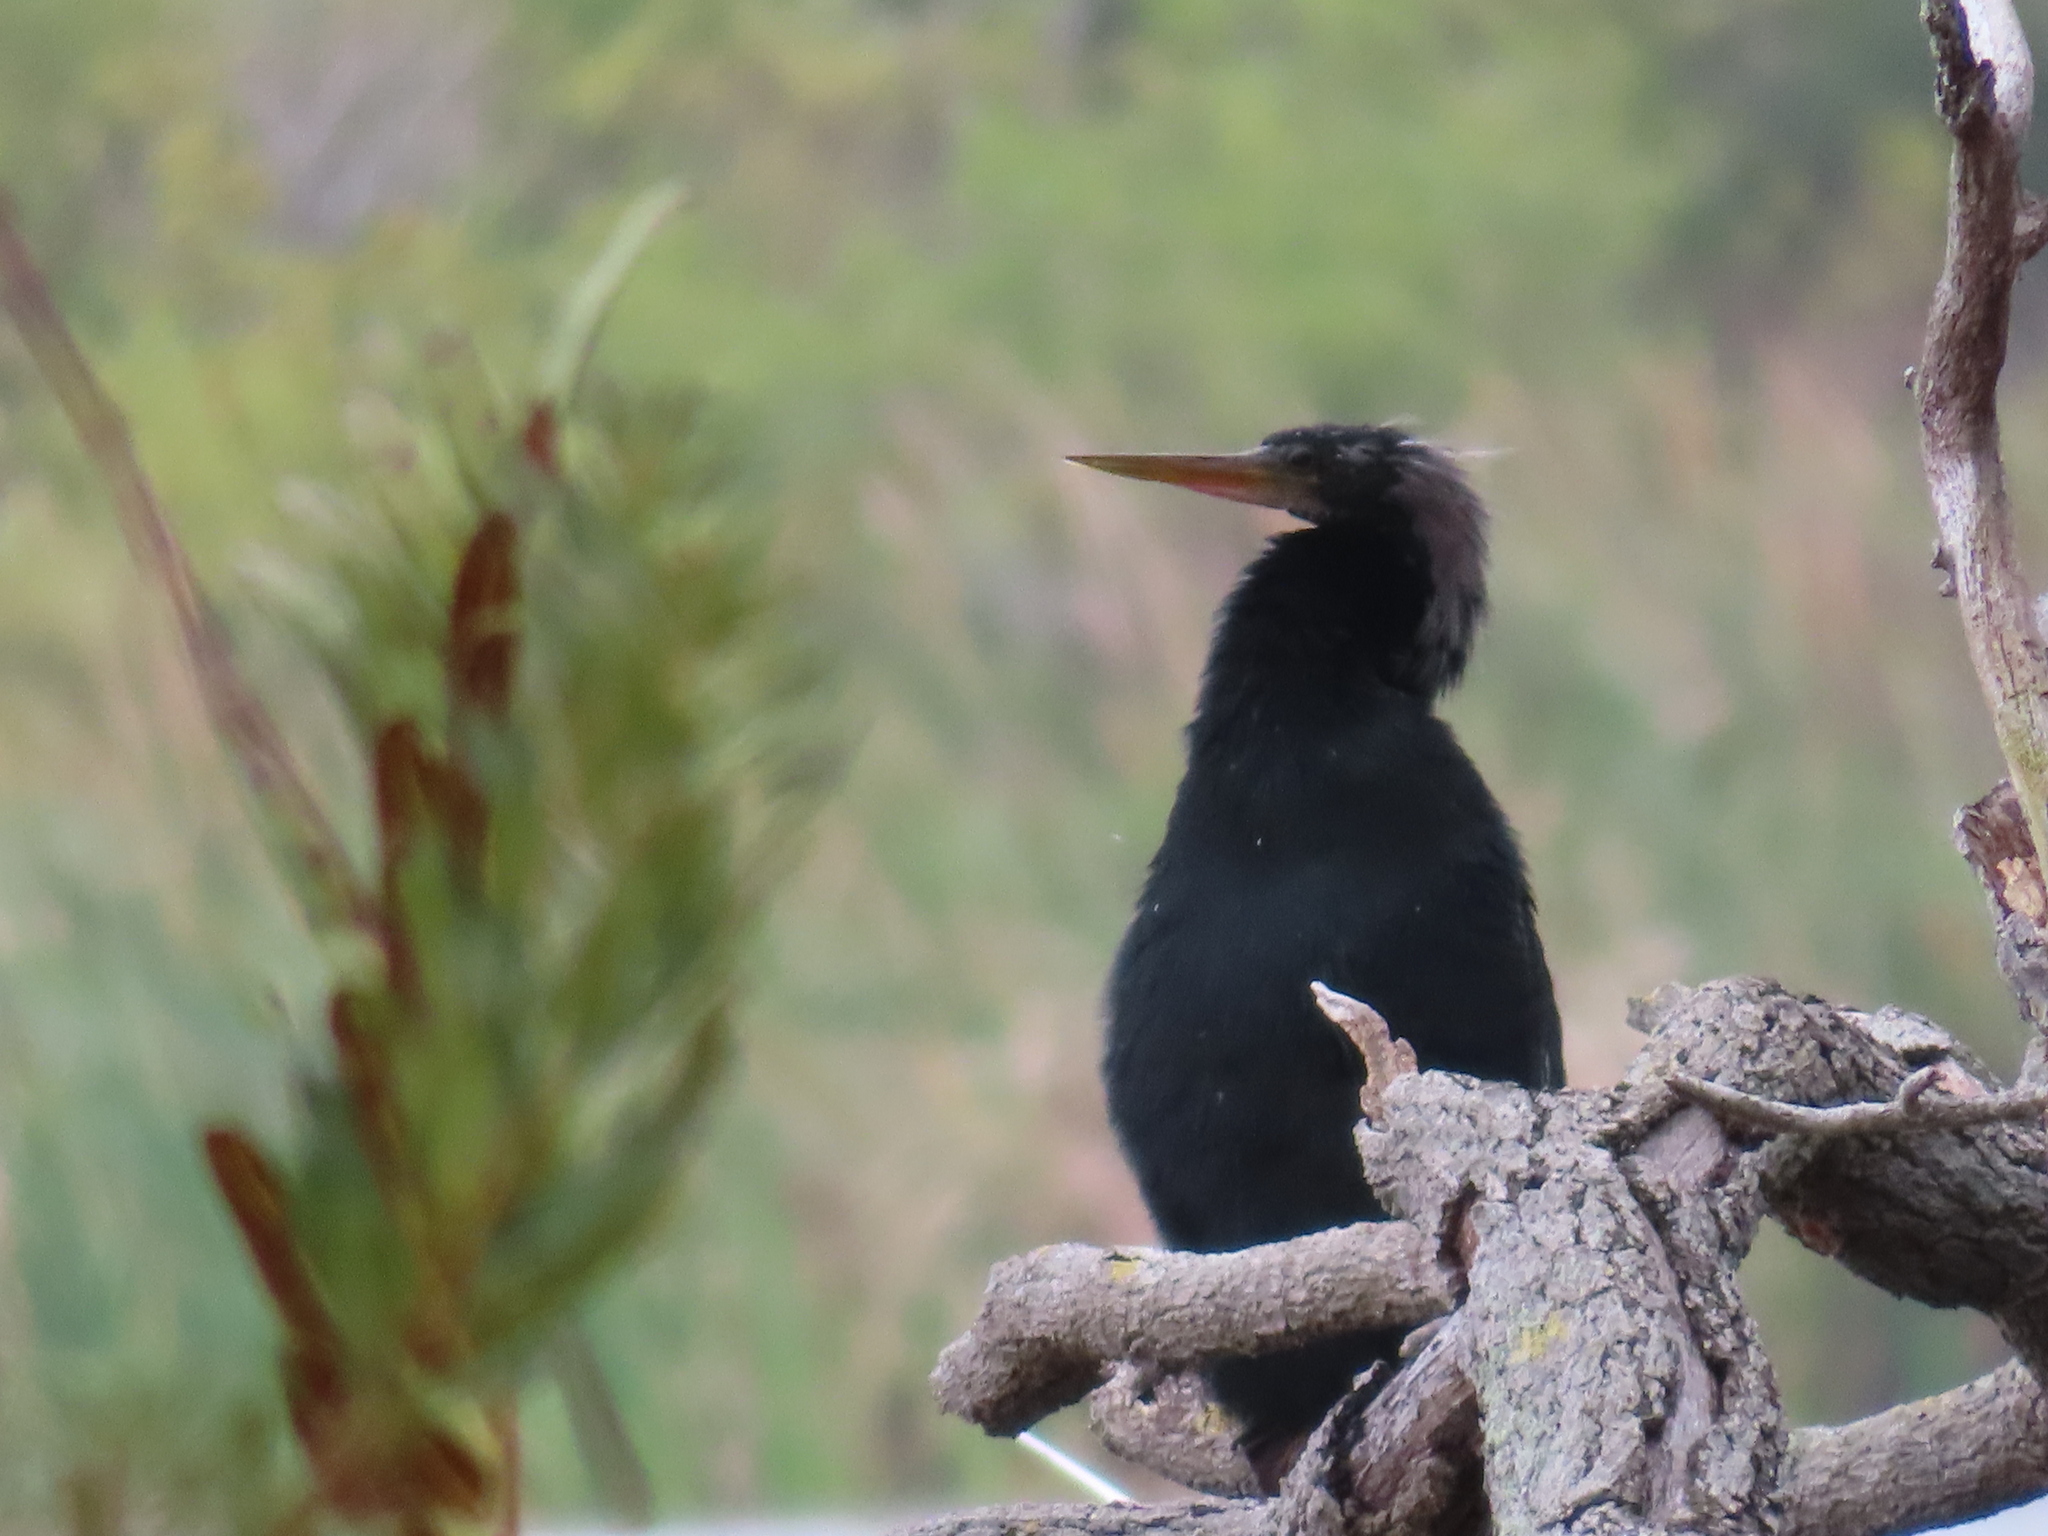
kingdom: Animalia
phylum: Chordata
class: Aves
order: Suliformes
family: Anhingidae
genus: Anhinga
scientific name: Anhinga anhinga
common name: Anhinga
